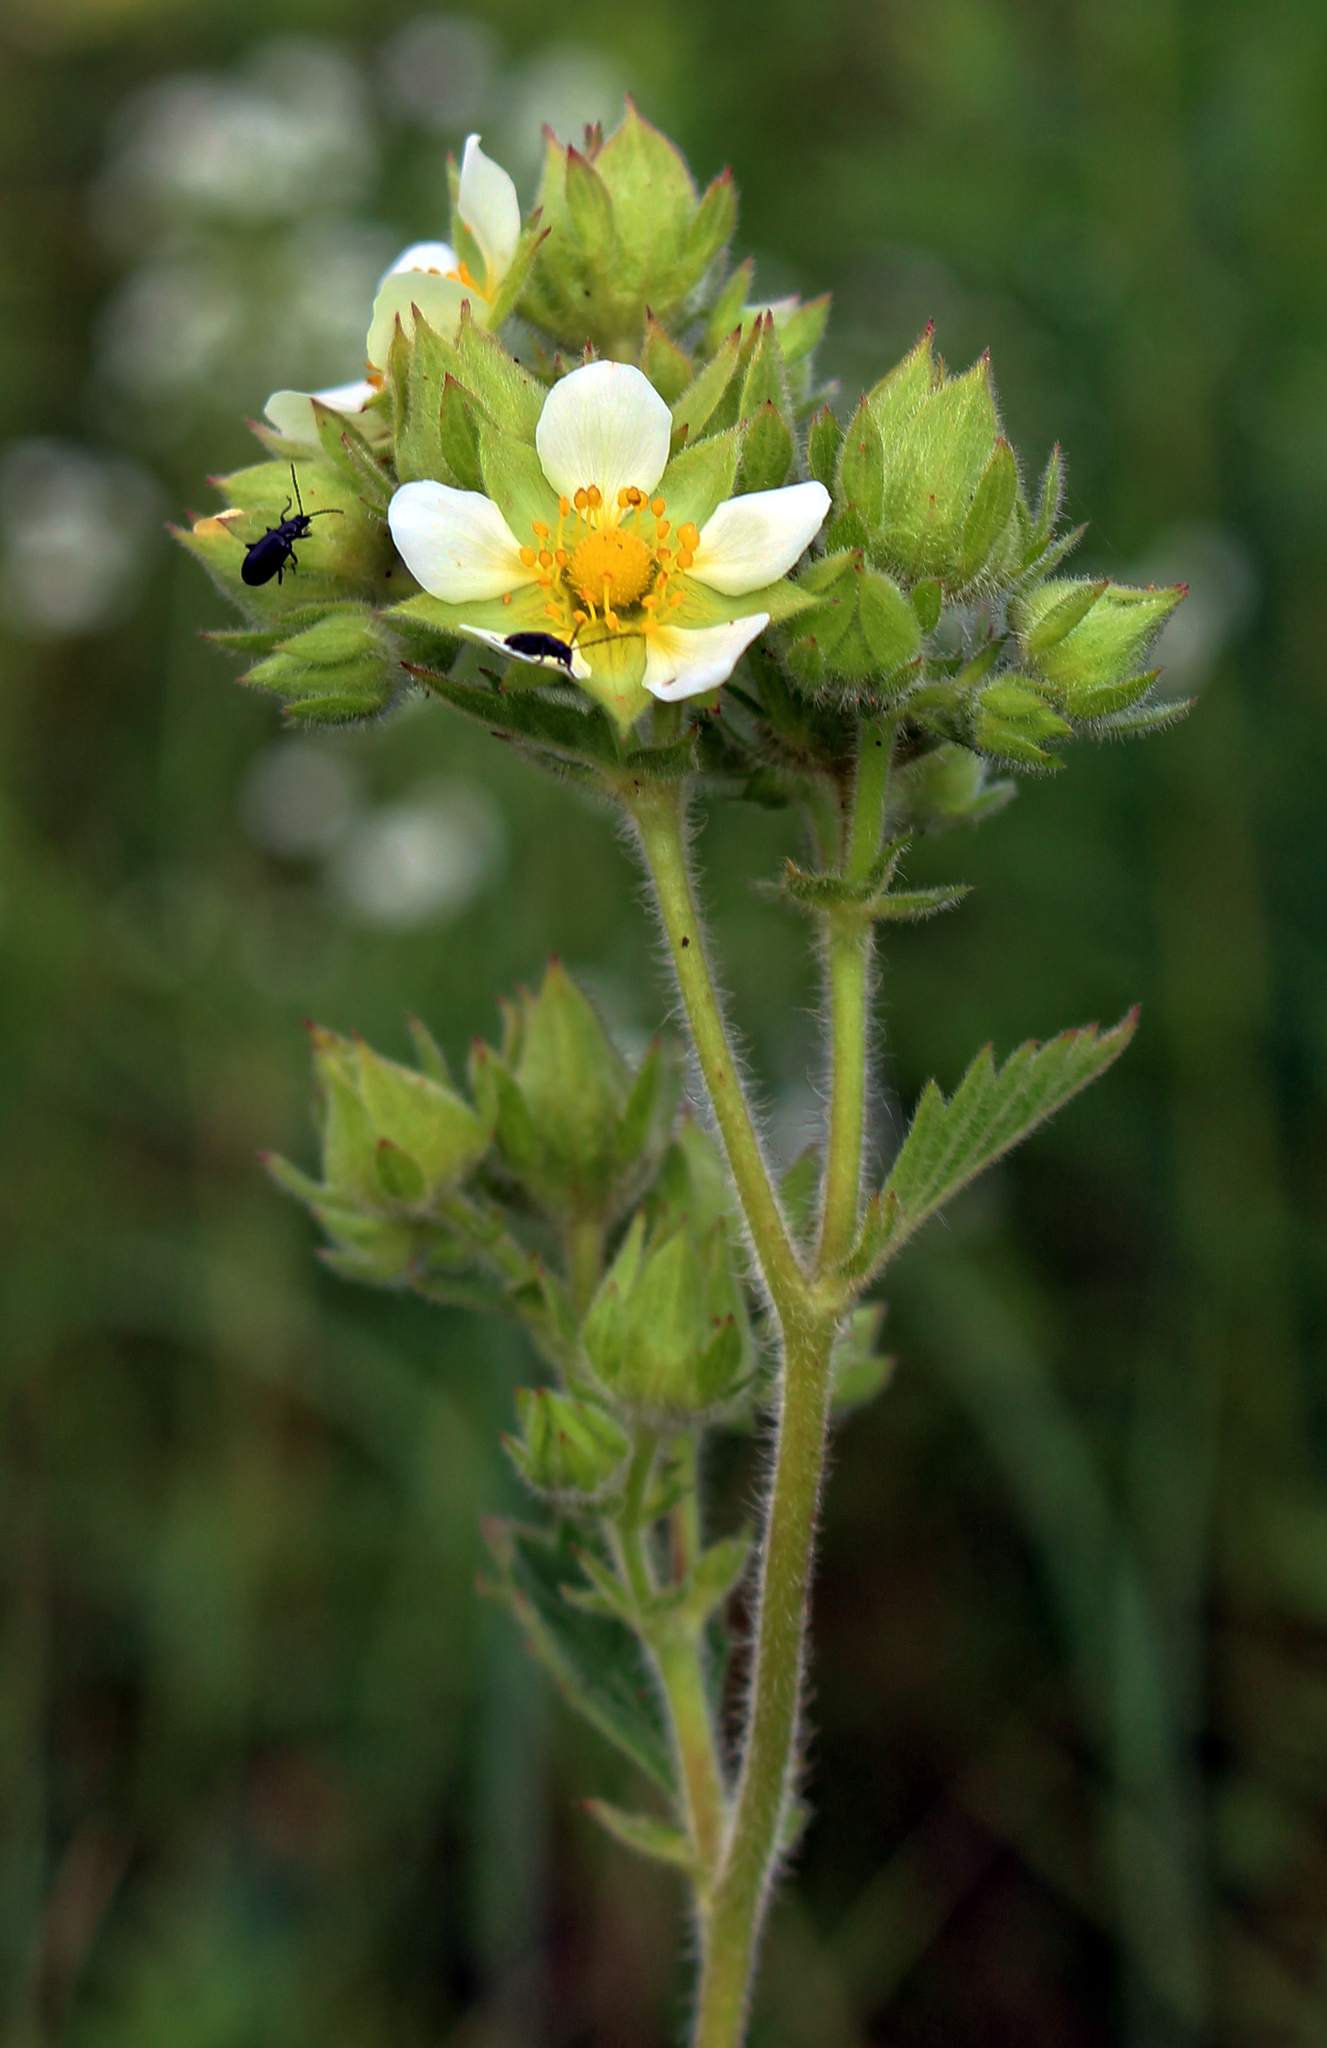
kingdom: Plantae
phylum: Tracheophyta
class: Magnoliopsida
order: Rosales
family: Rosaceae
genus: Drymocallis
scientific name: Drymocallis arguta
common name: Tall cinquefoil
